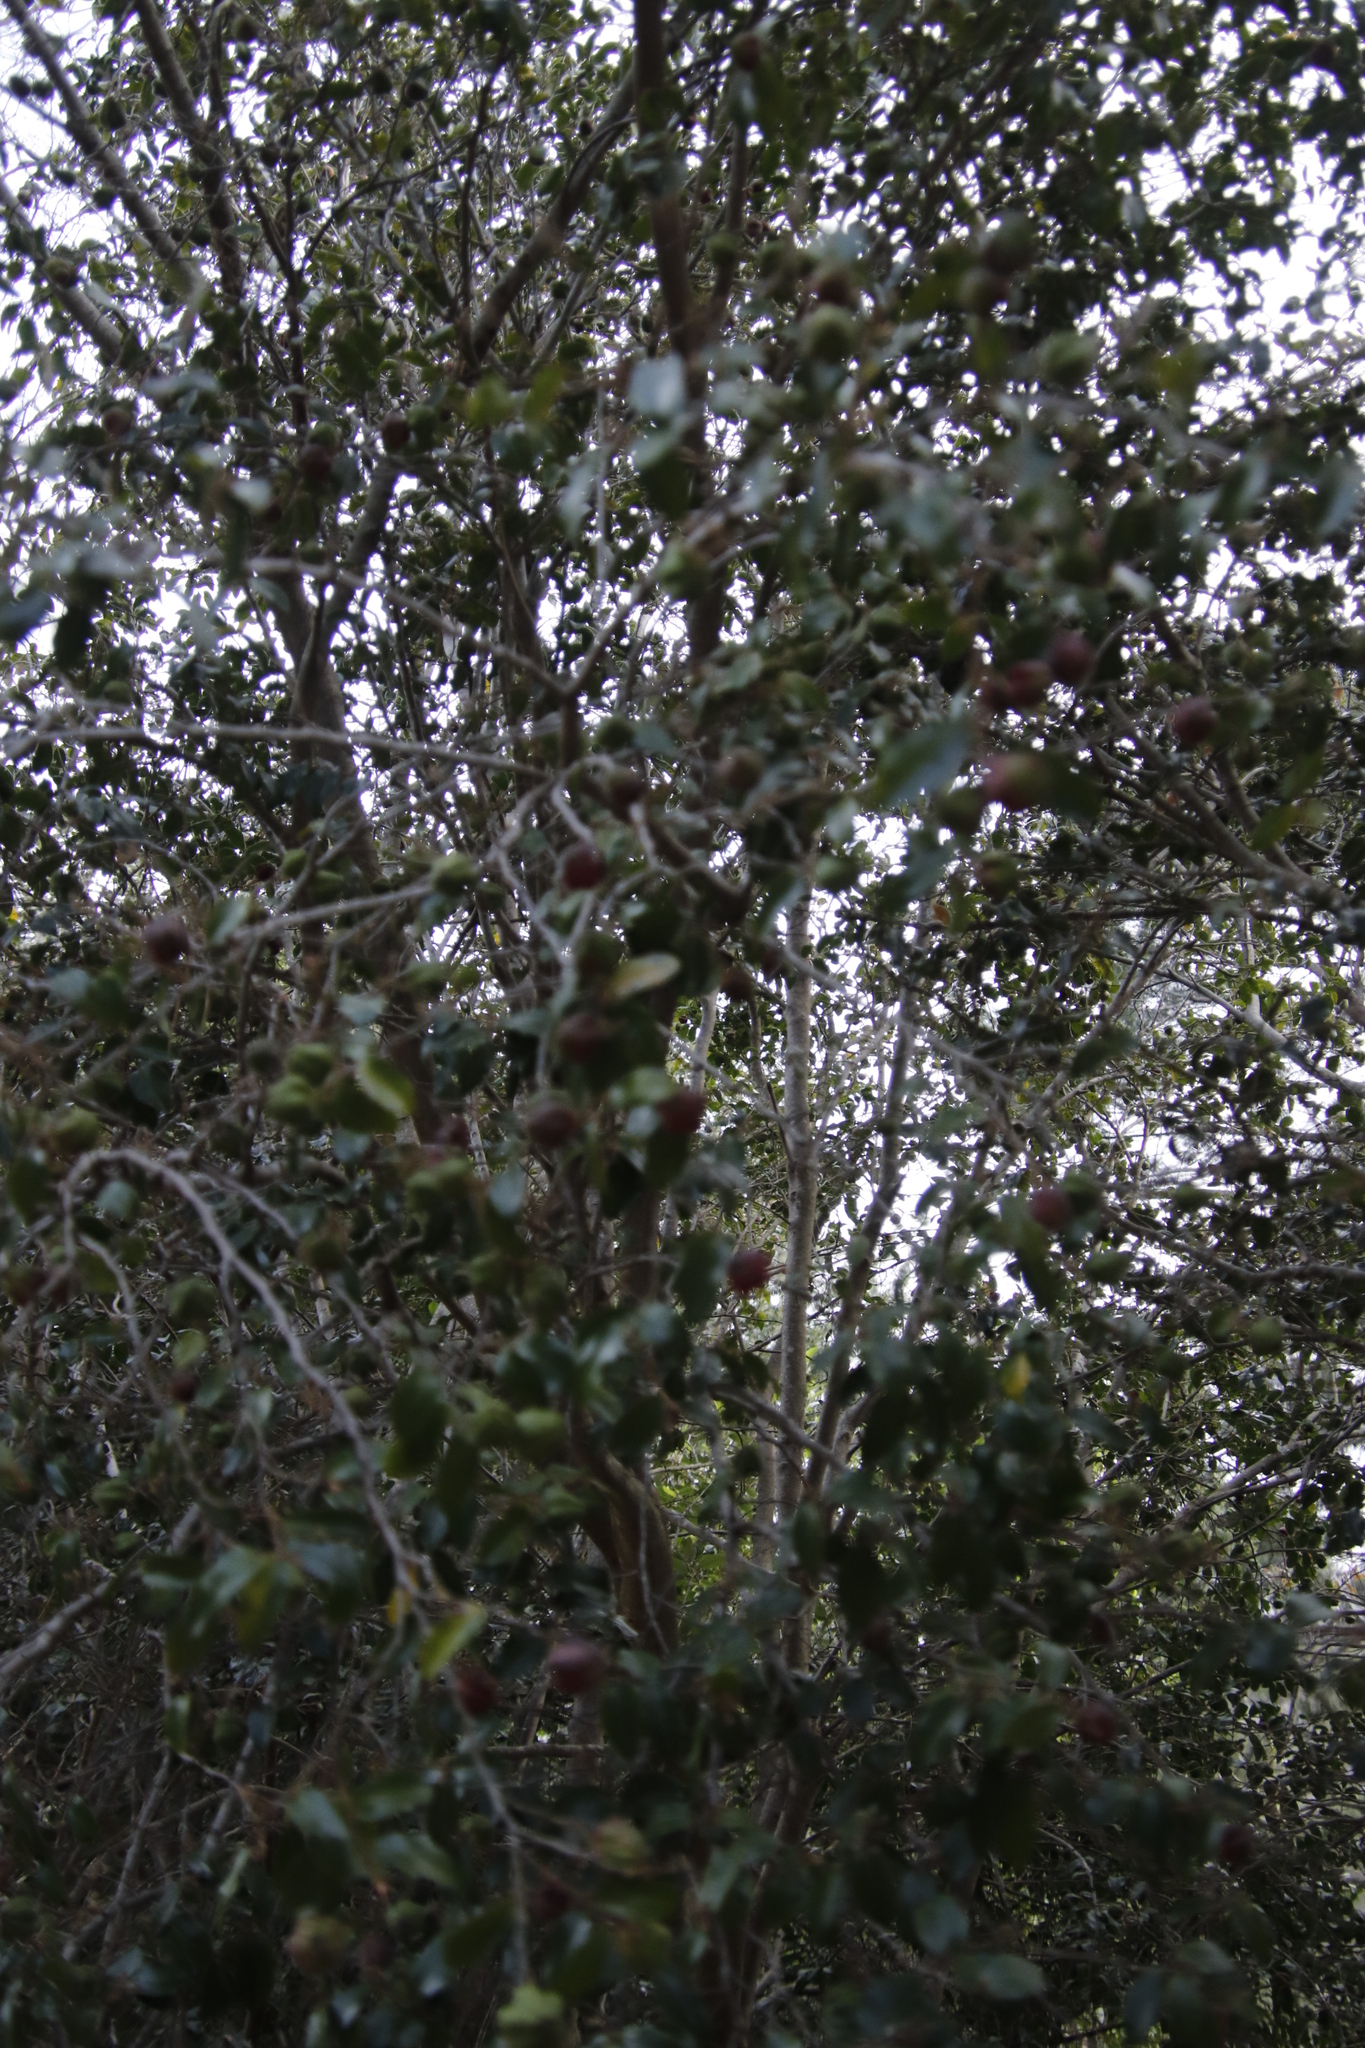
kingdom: Plantae
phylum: Tracheophyta
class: Magnoliopsida
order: Ericales
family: Ebenaceae
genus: Diospyros
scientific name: Diospyros whyteana
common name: Bladder-nut
